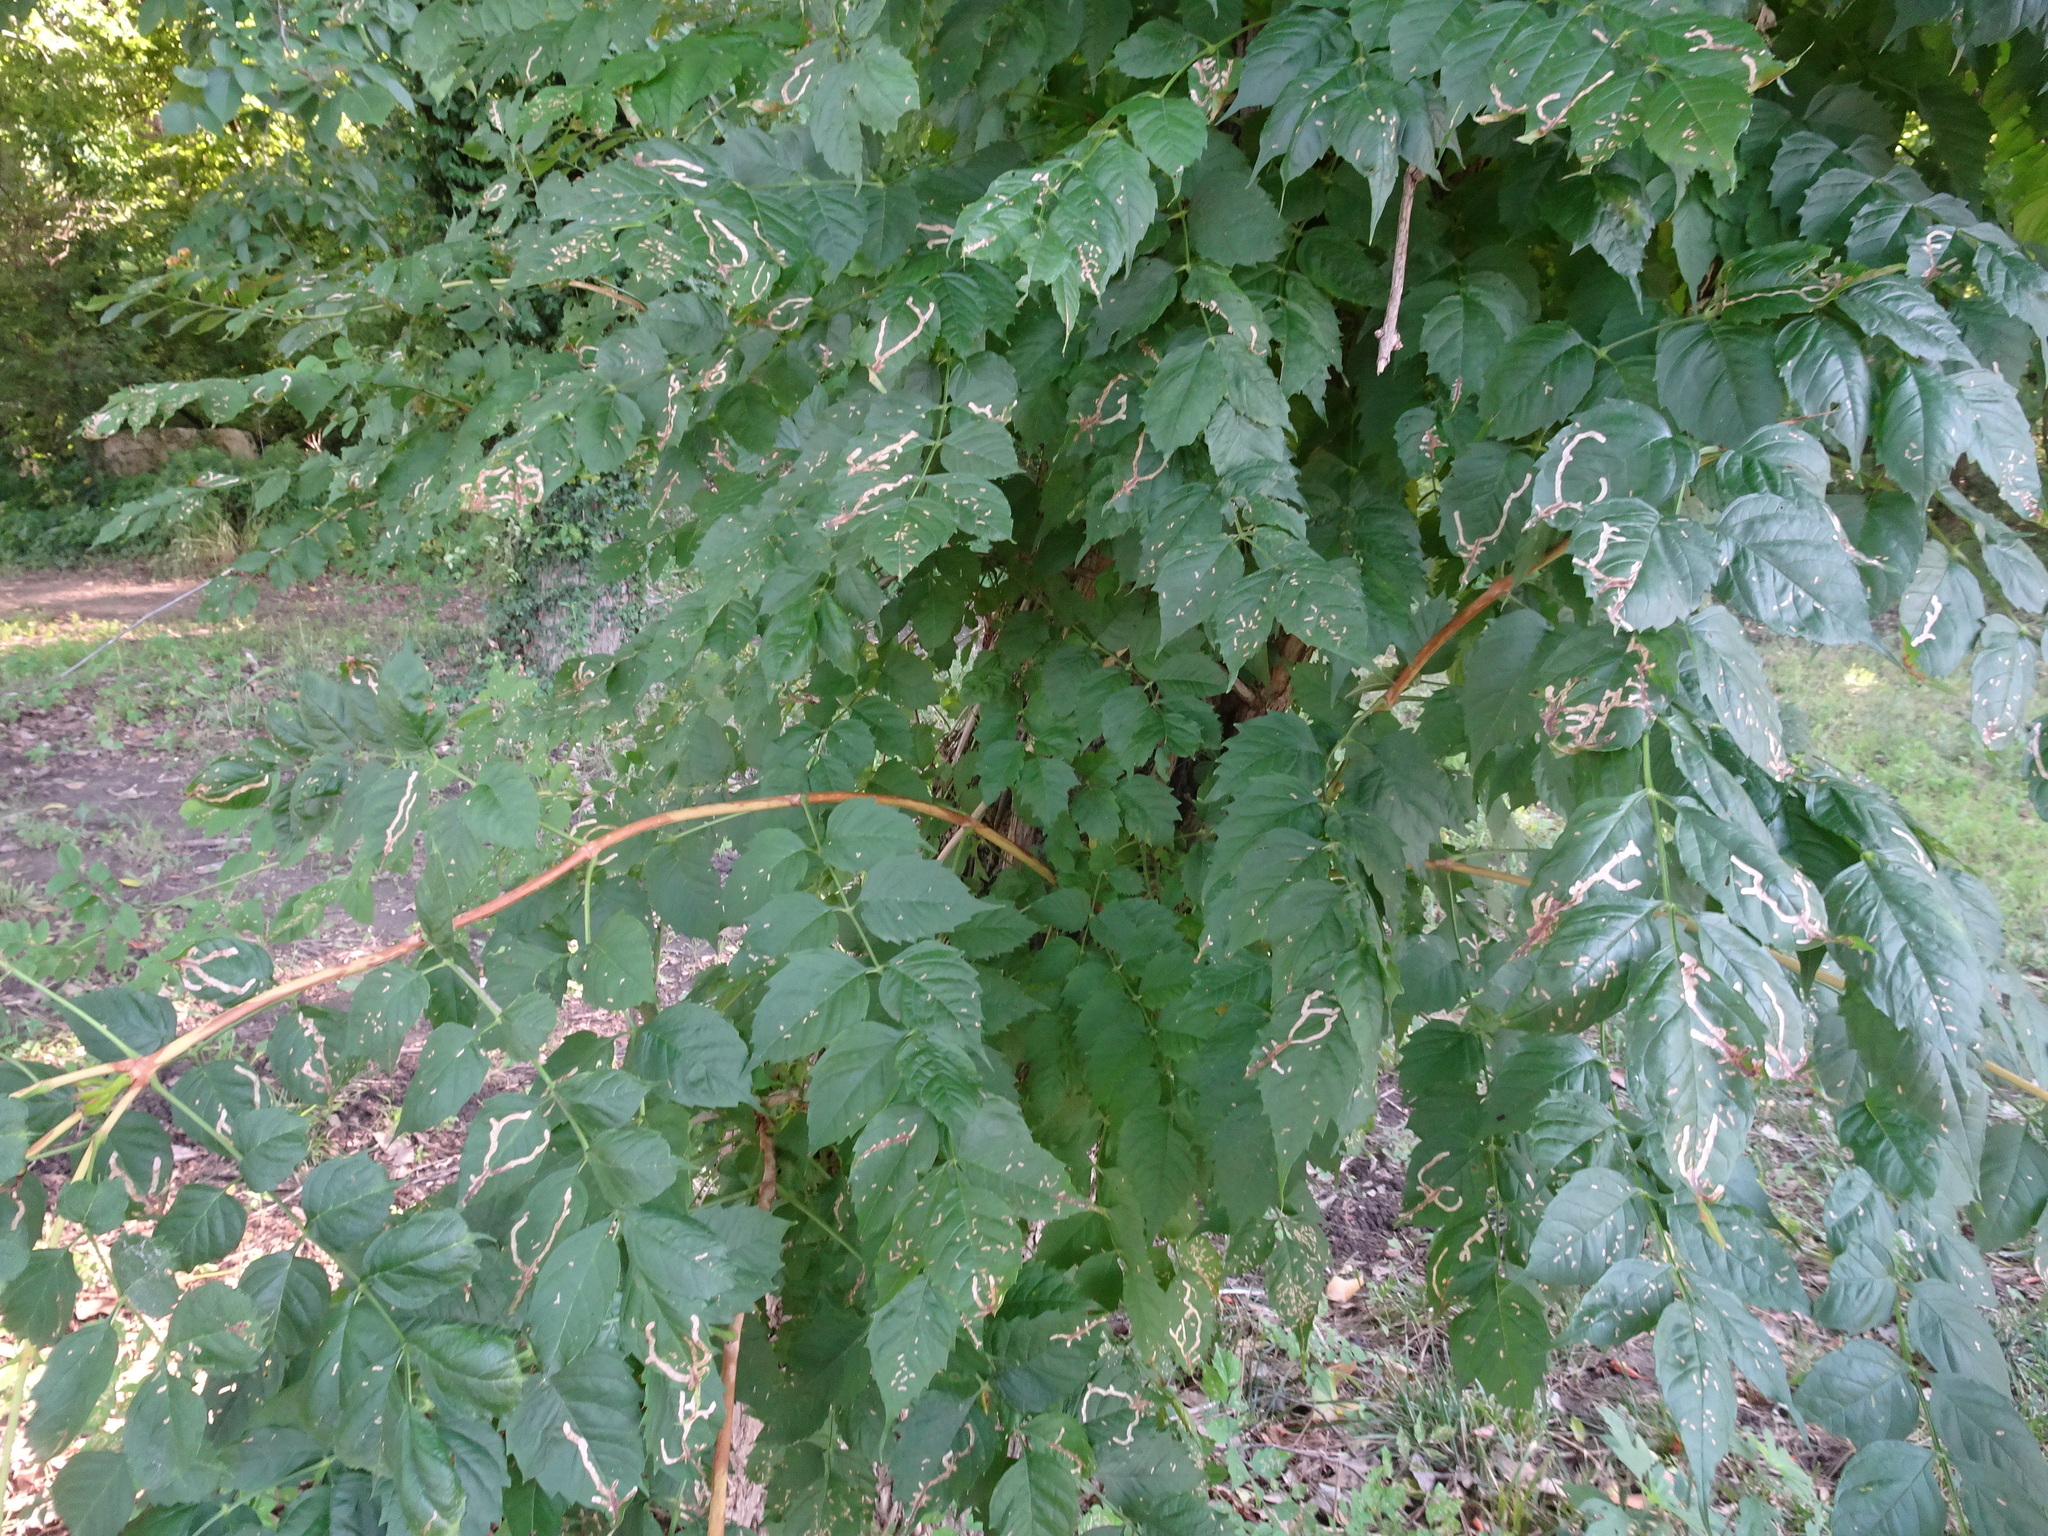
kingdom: Animalia
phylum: Arthropoda
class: Insecta
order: Coleoptera
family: Chrysomelidae
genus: Octotoma
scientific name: Octotoma plicatula
